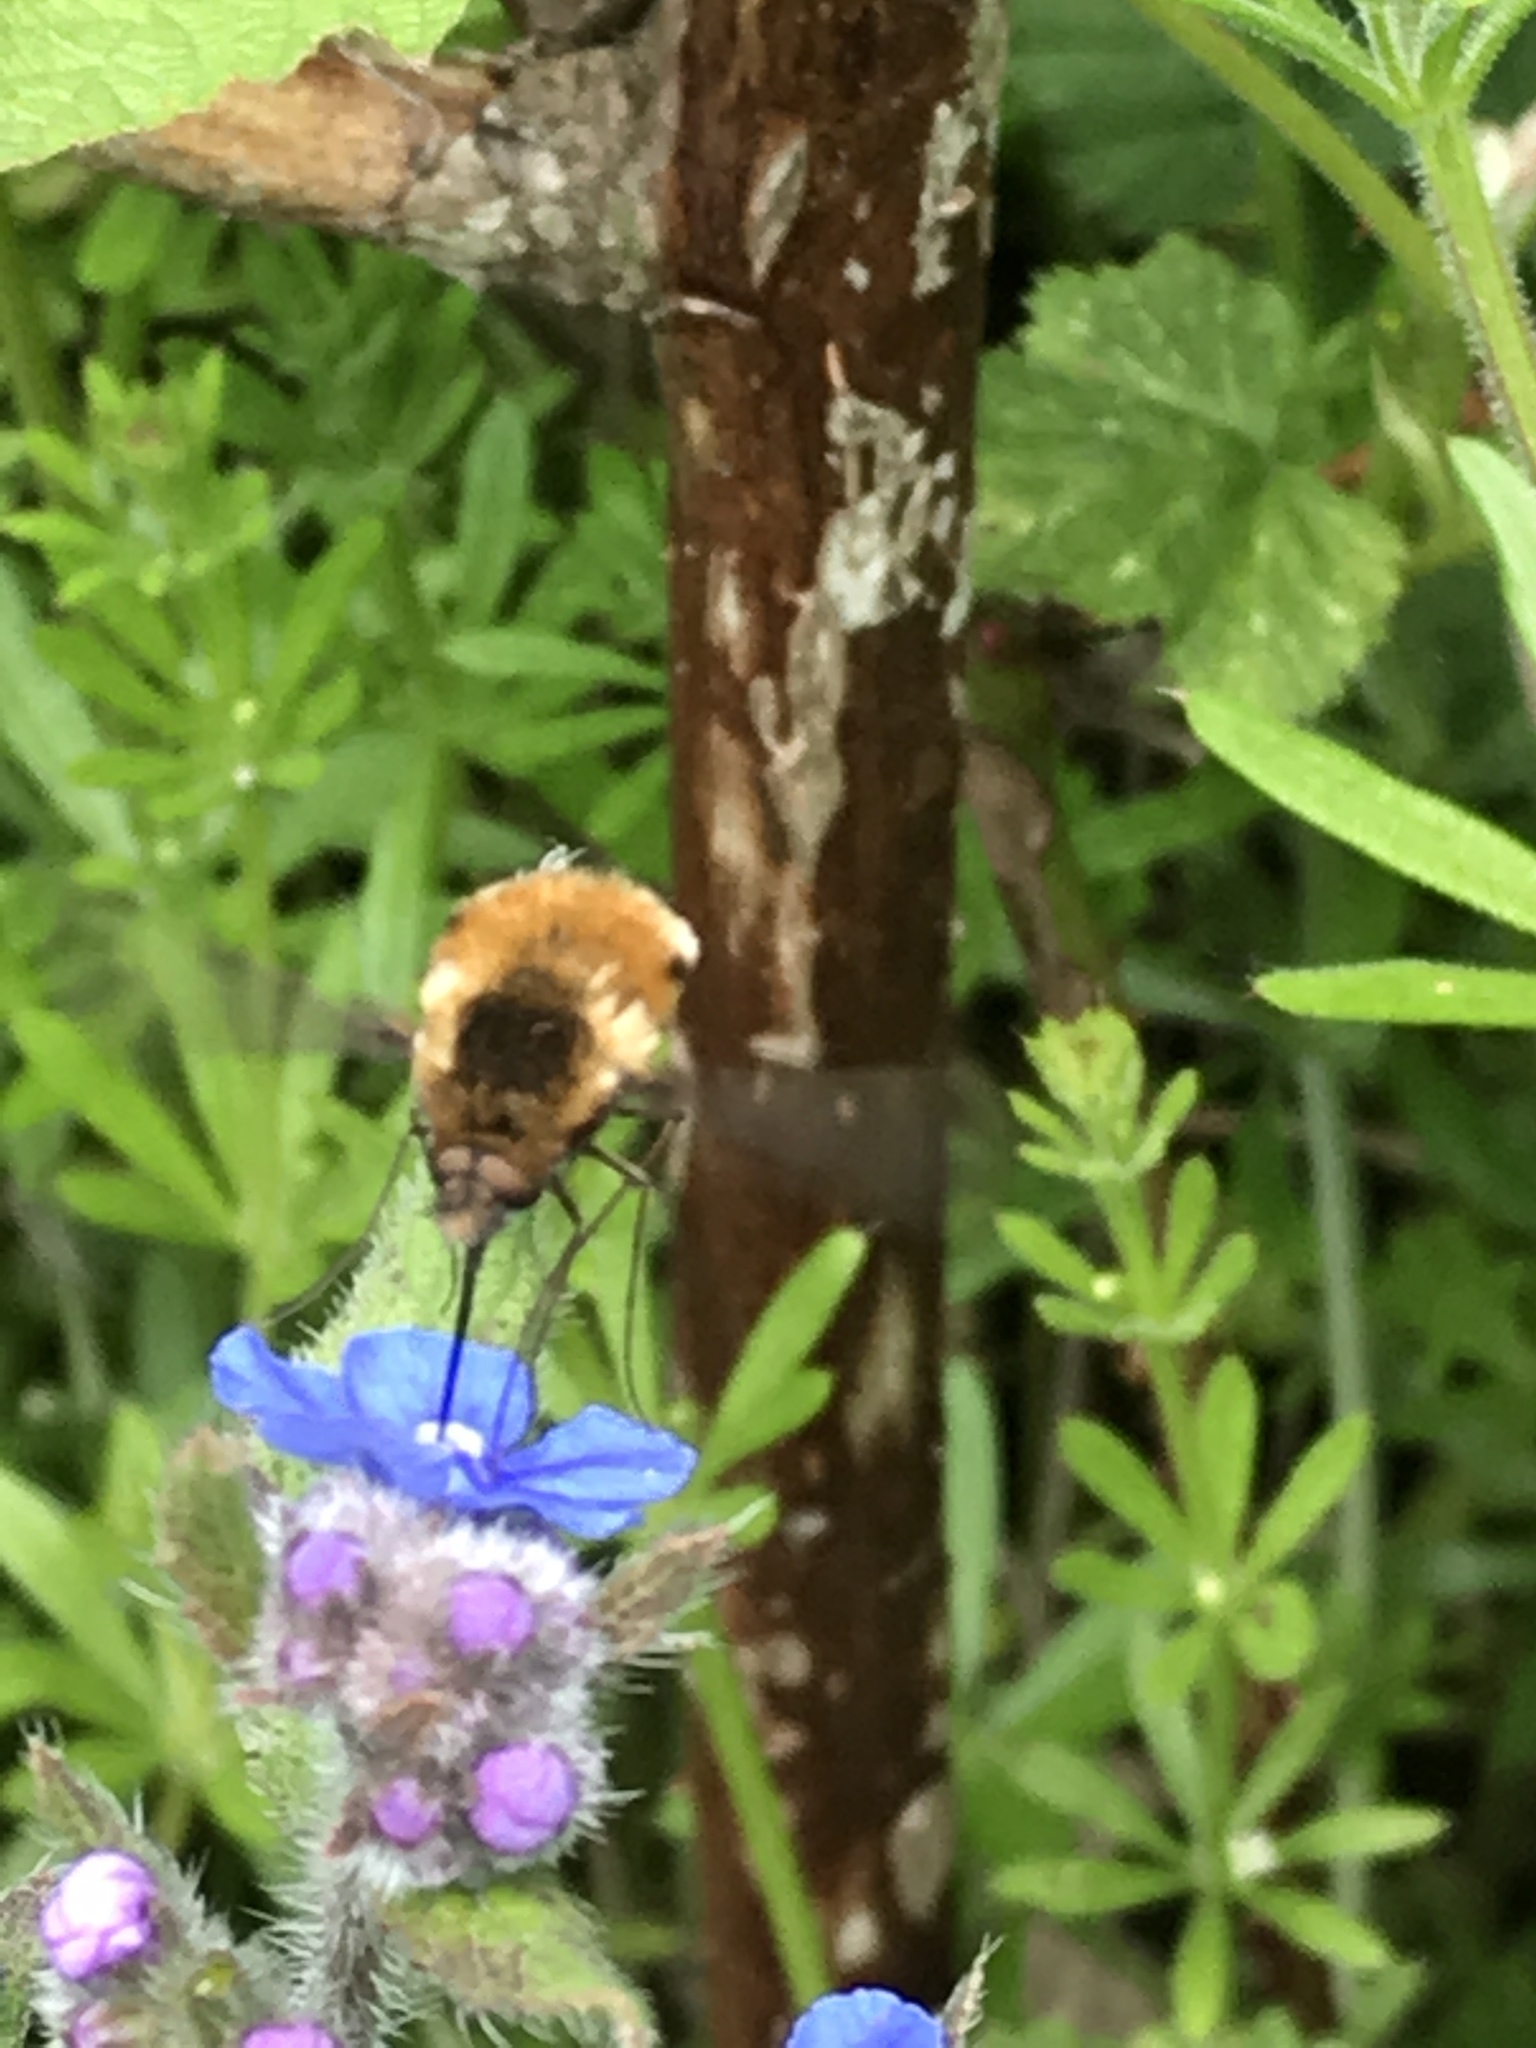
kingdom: Animalia
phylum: Arthropoda
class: Insecta
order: Diptera
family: Bombyliidae
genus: Bombylius
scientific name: Bombylius major
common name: Bee fly
